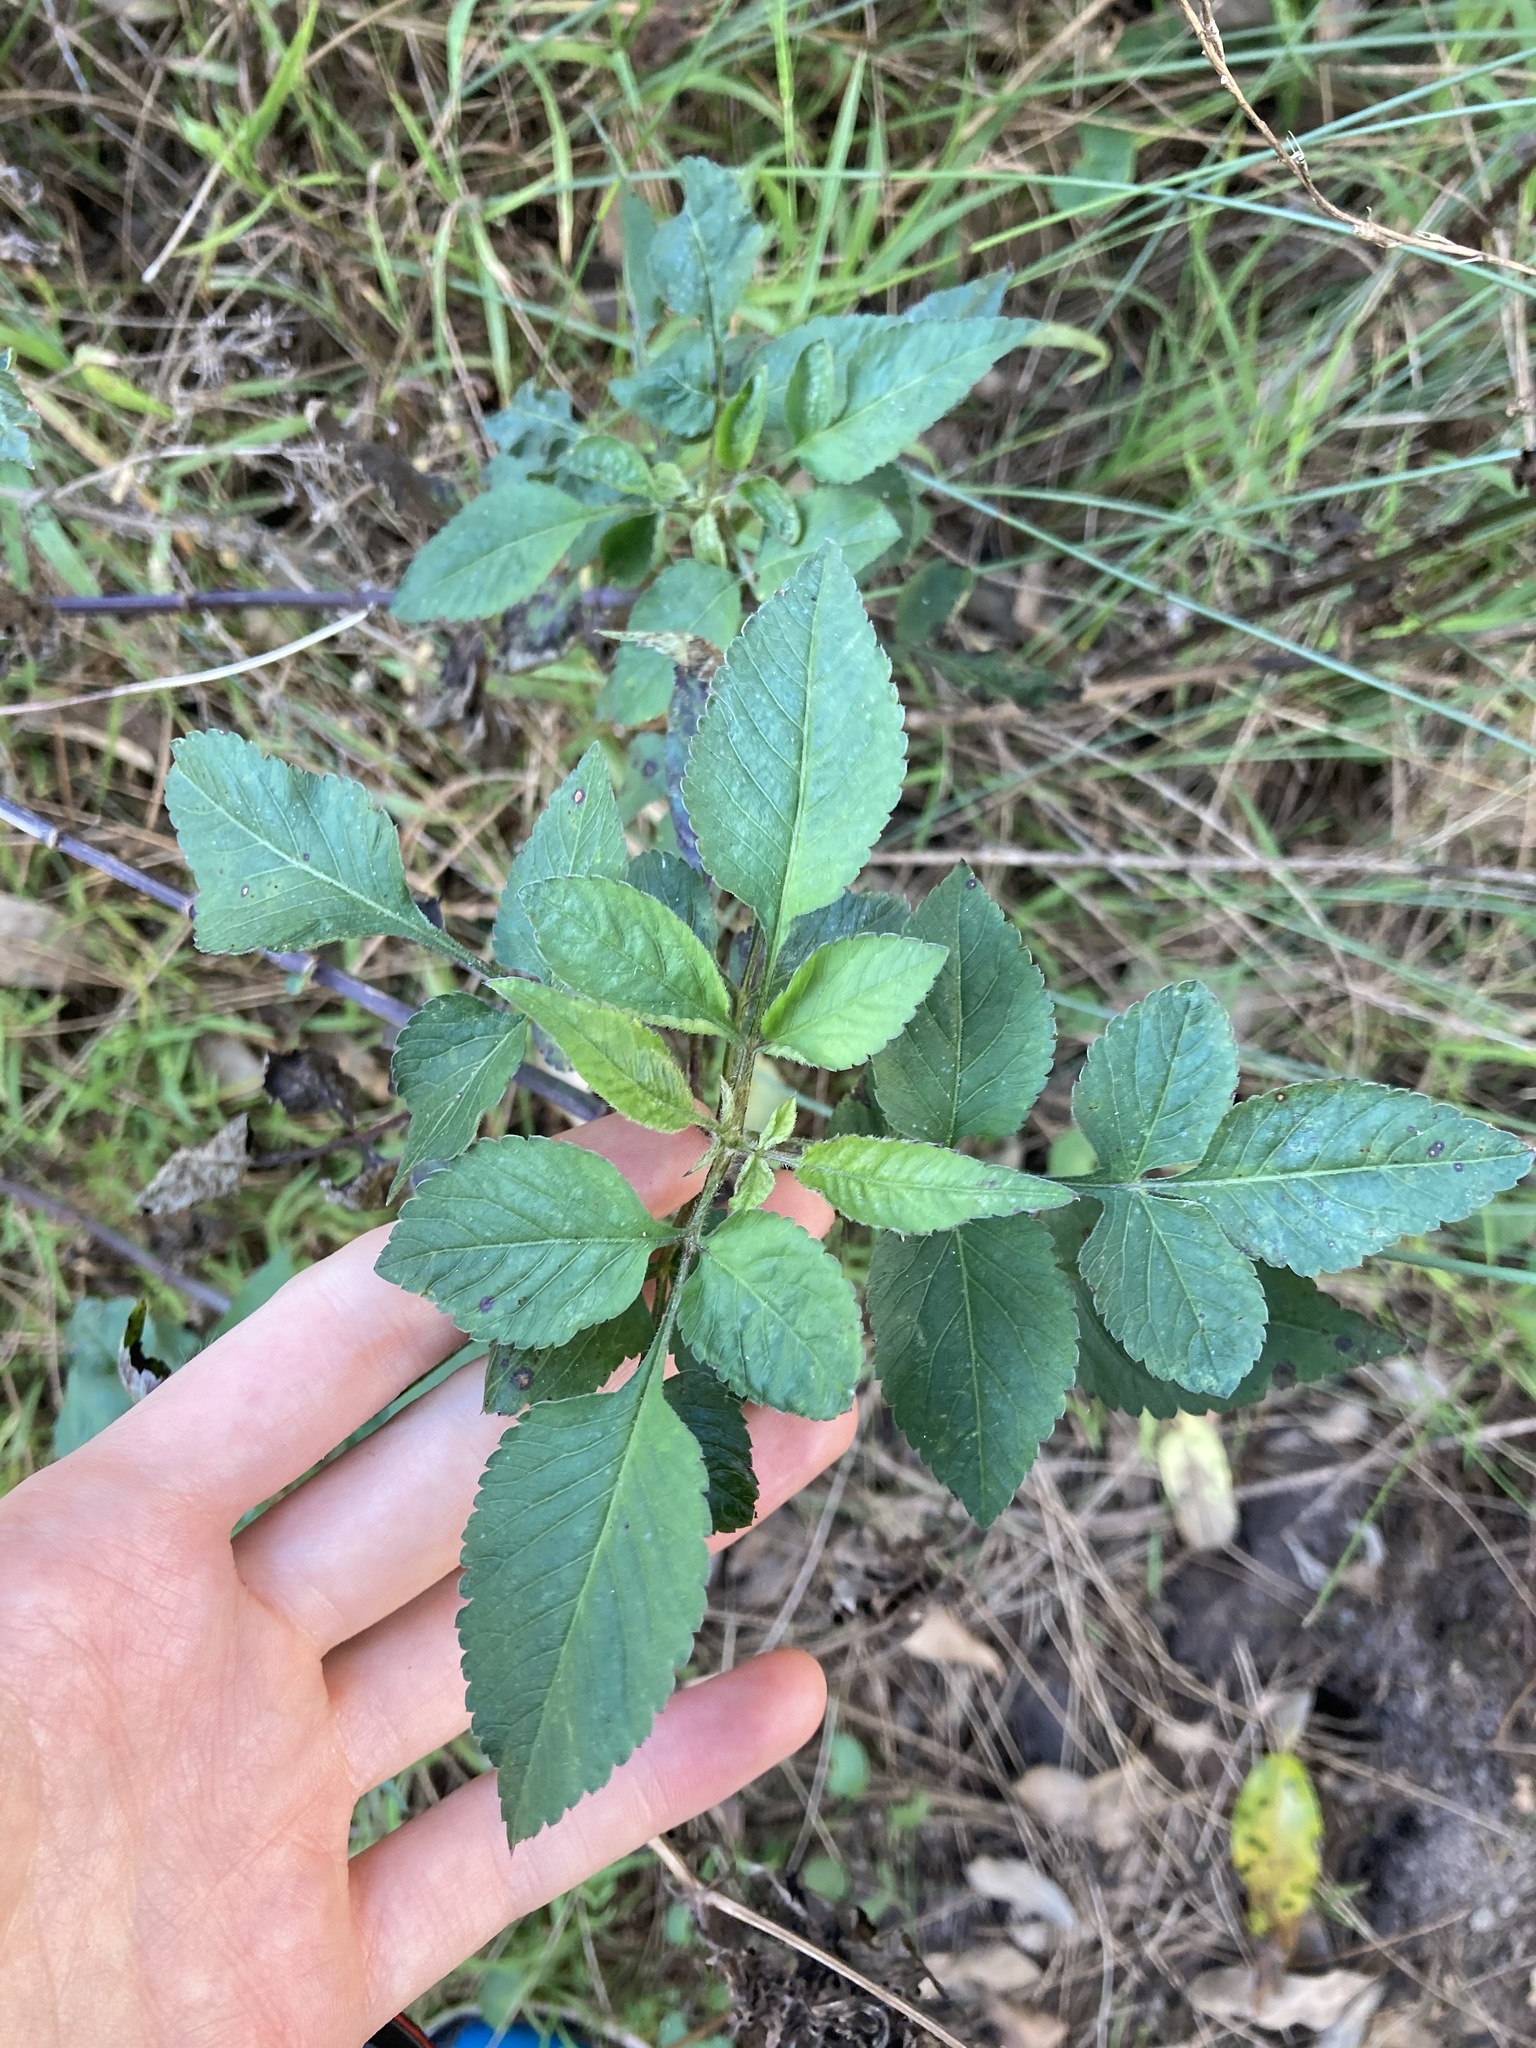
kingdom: Plantae
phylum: Tracheophyta
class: Magnoliopsida
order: Asterales
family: Asteraceae
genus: Bidens
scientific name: Bidens pilosa
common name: Black-jack
